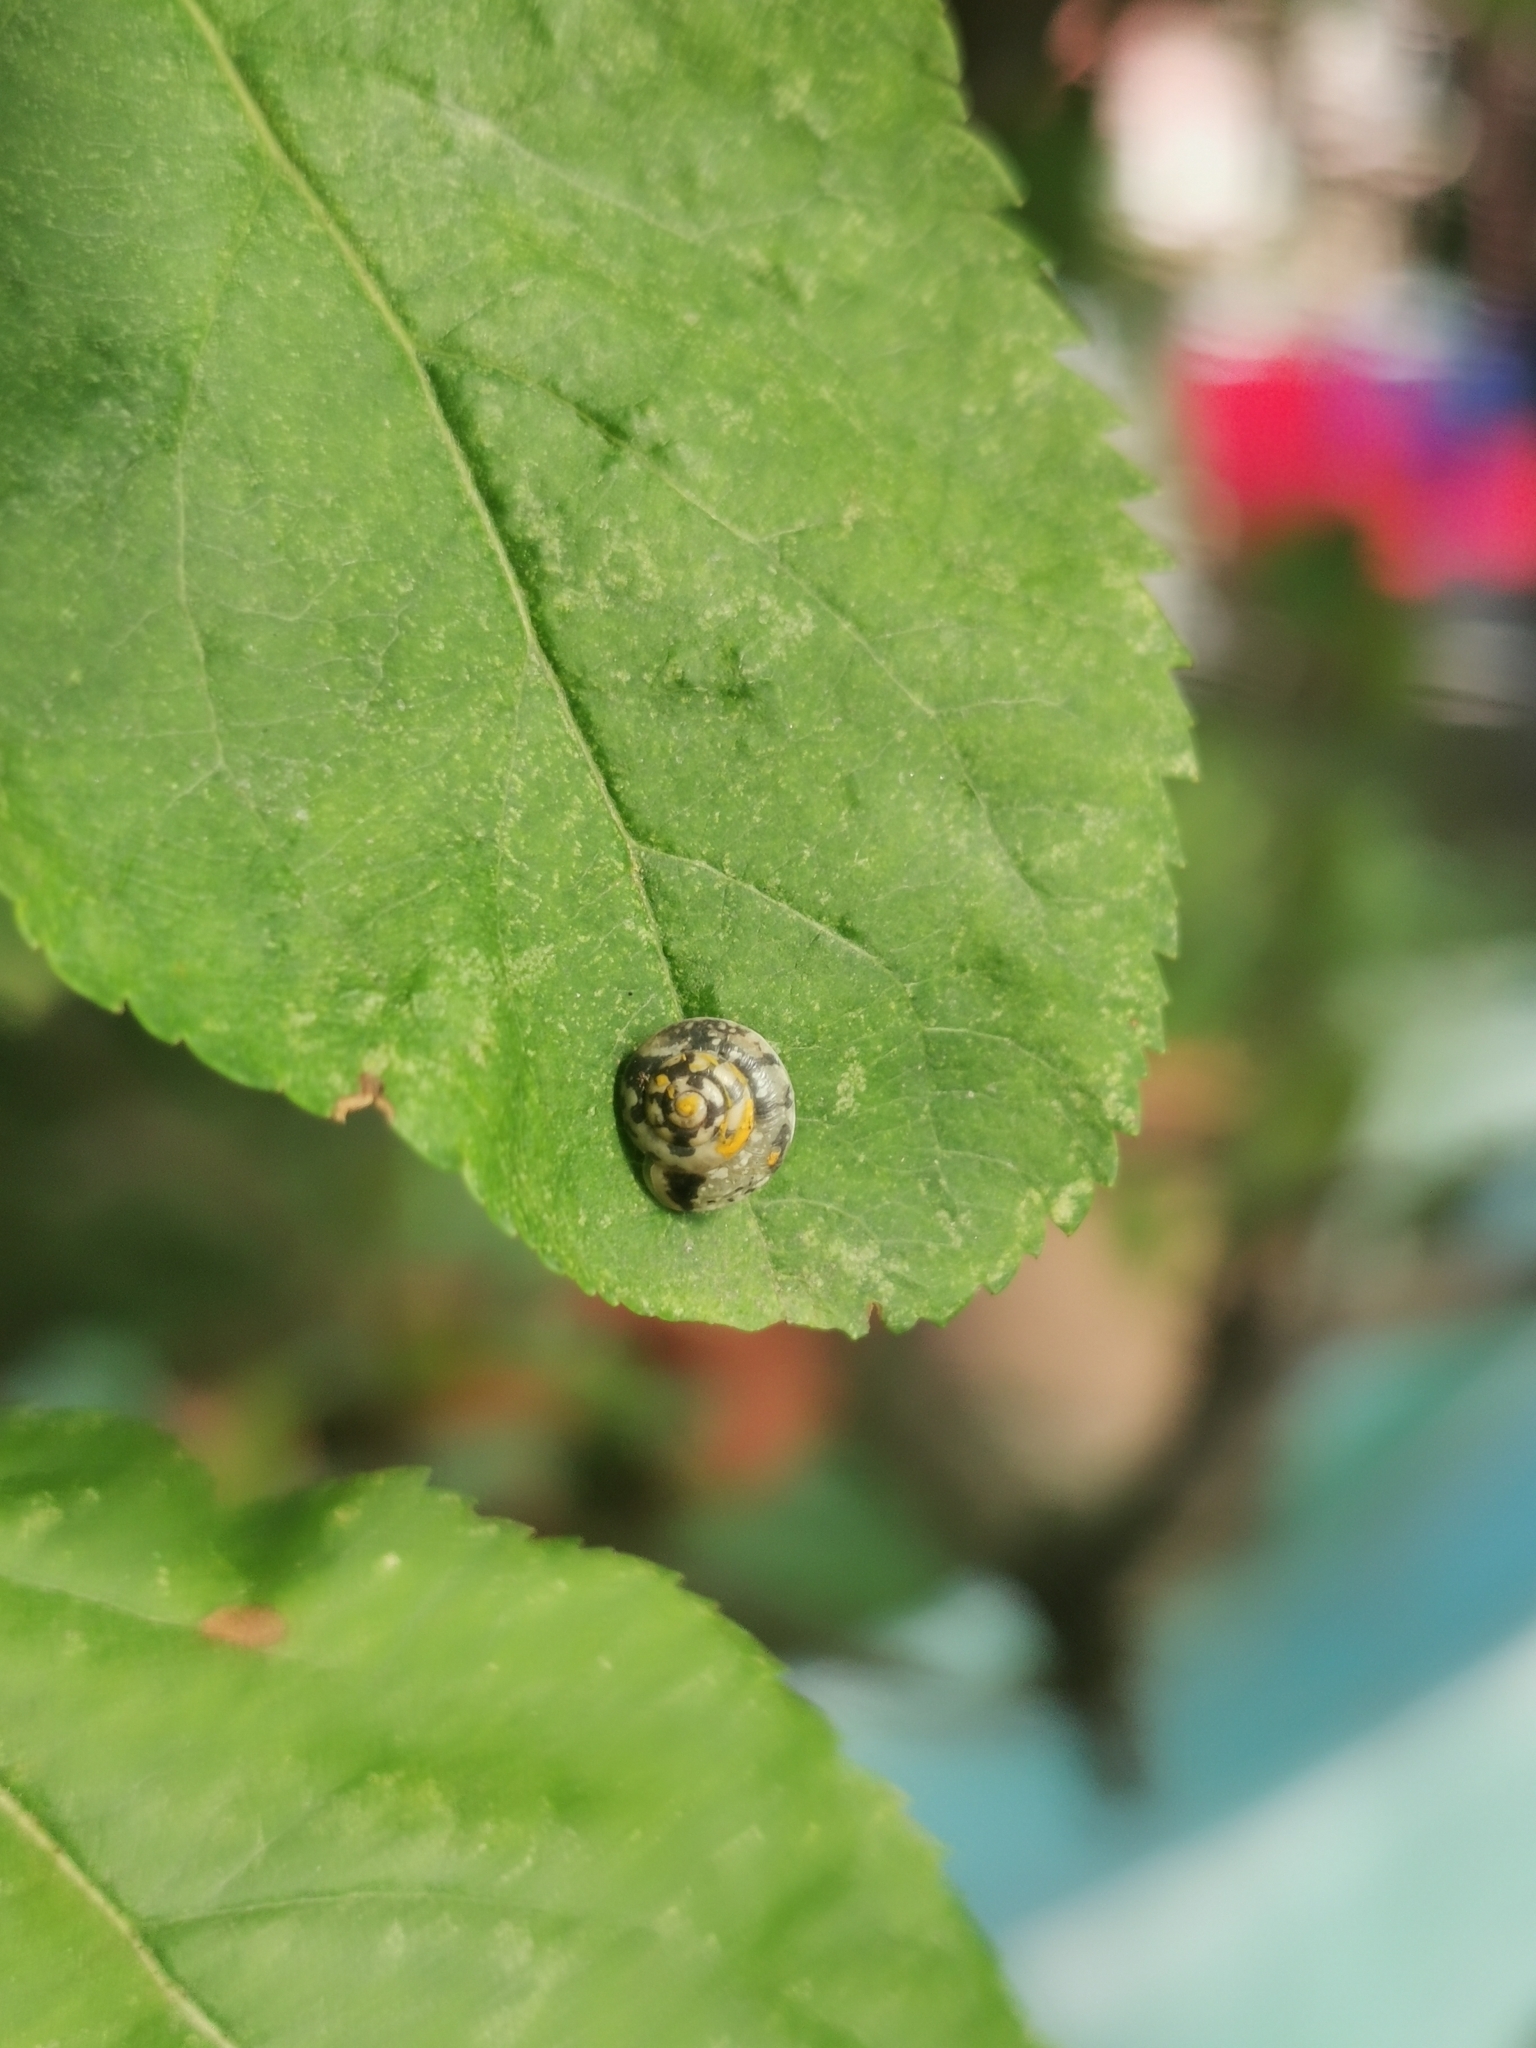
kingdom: Animalia
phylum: Mollusca
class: Gastropoda
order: Stylommatophora
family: Hygromiidae
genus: Hygromia
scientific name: Hygromia cinctella
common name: Girdled snail
